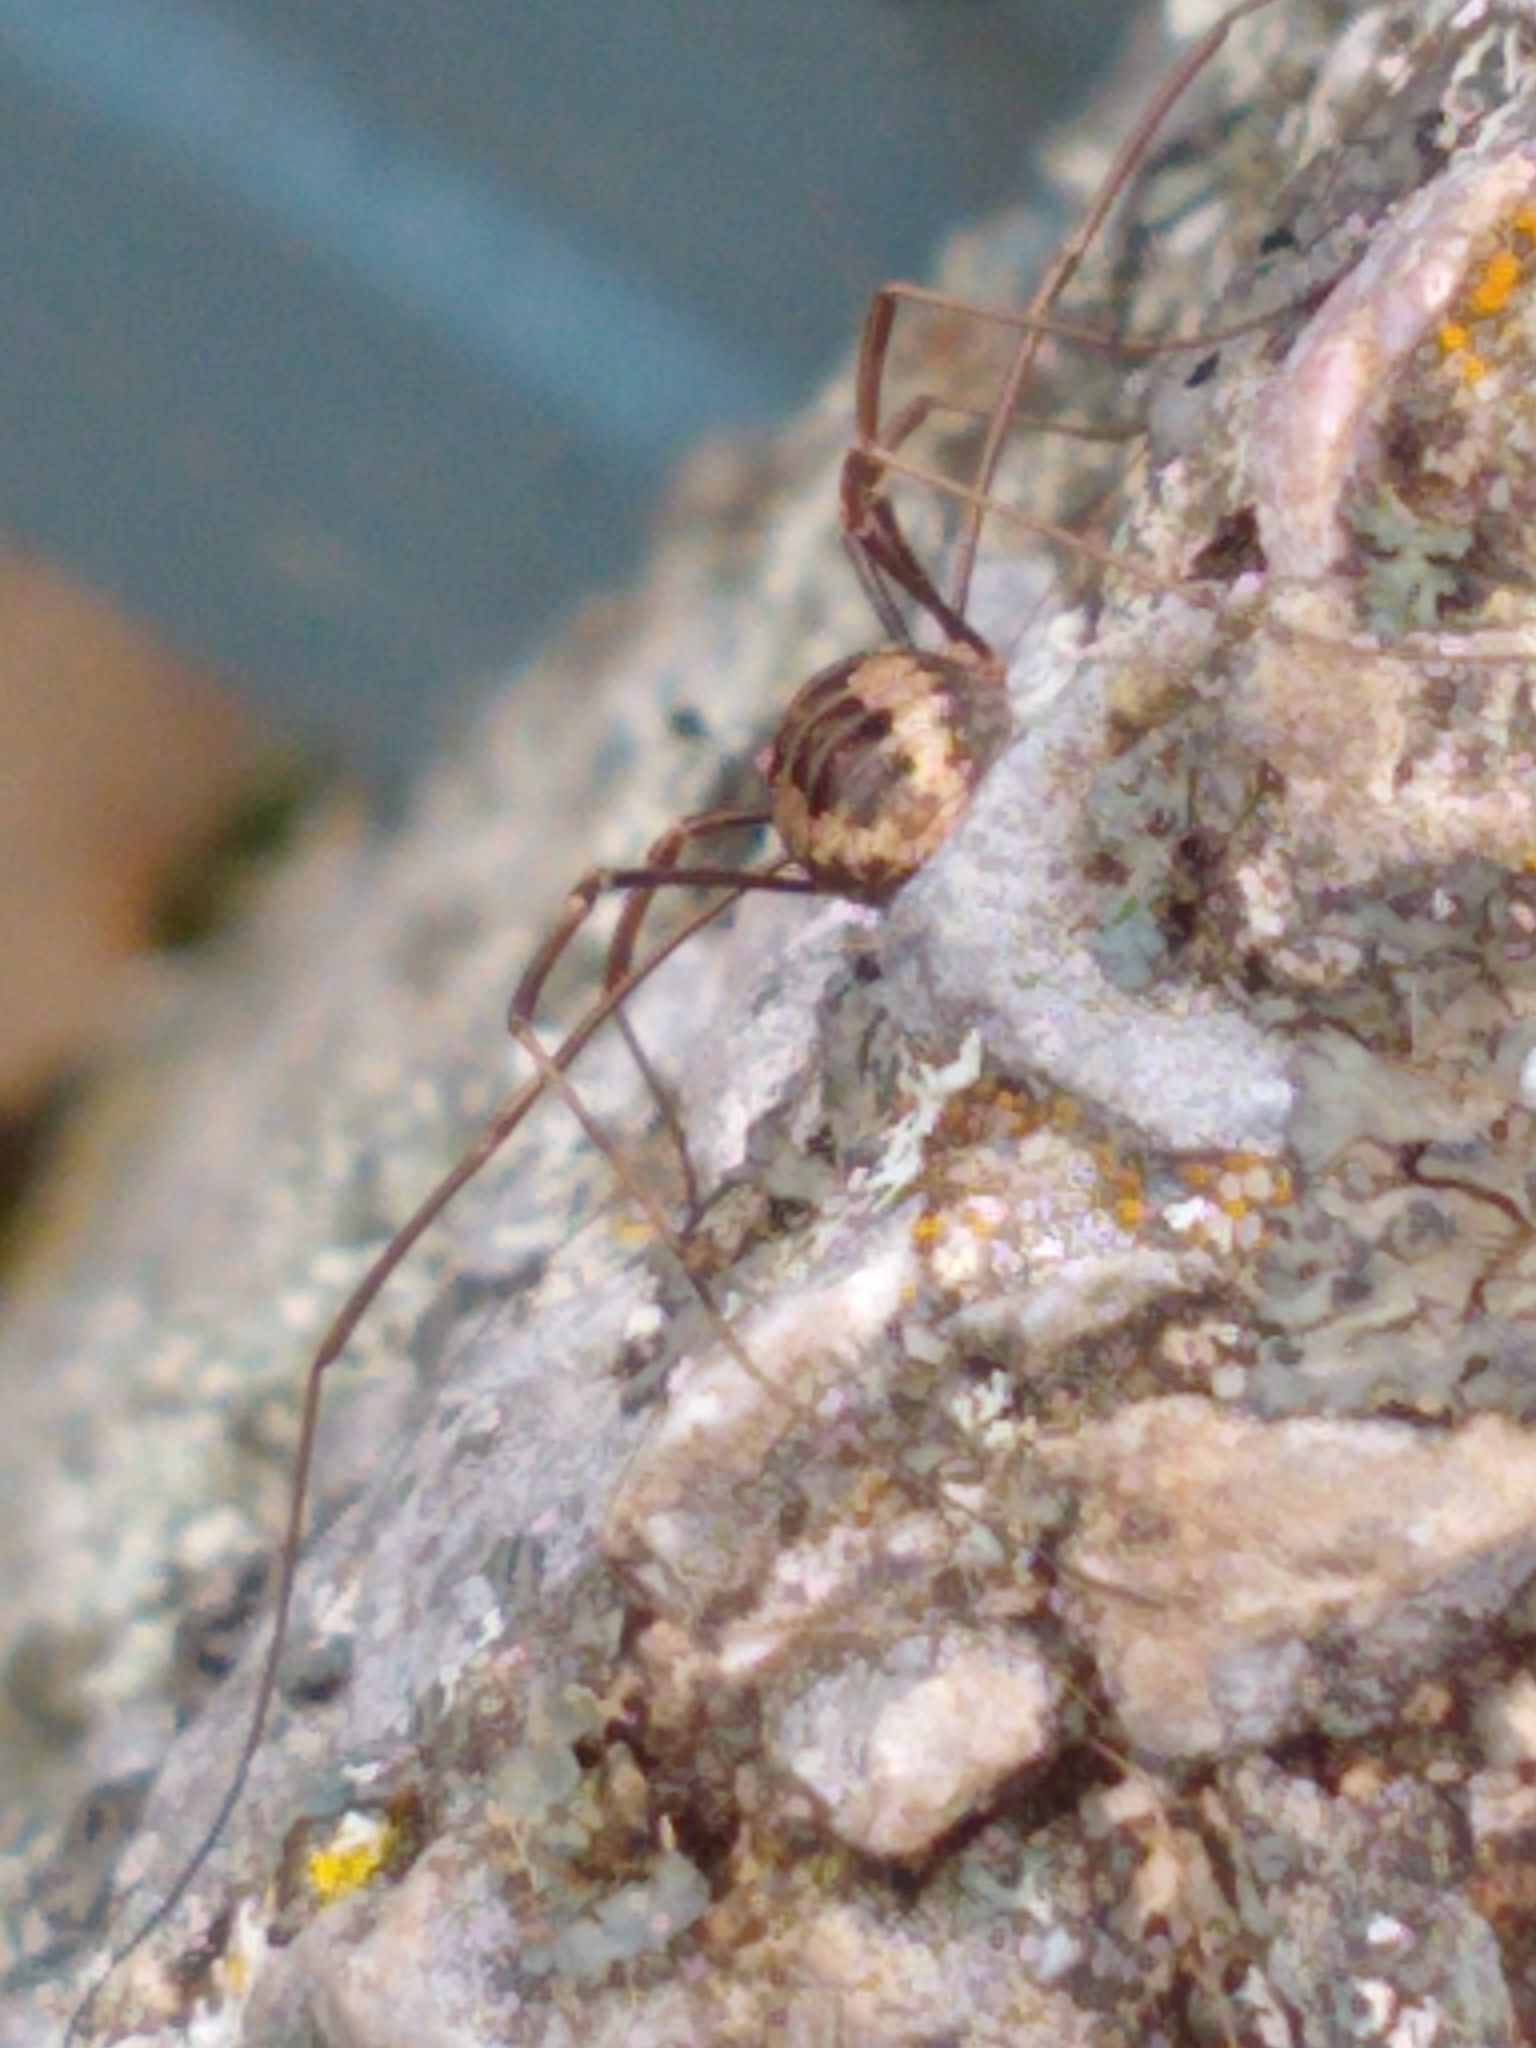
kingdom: Animalia
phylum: Arthropoda
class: Arachnida
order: Opiliones
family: Phalangiidae
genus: Phalangium
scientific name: Phalangium opilio
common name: Daddy longleg
